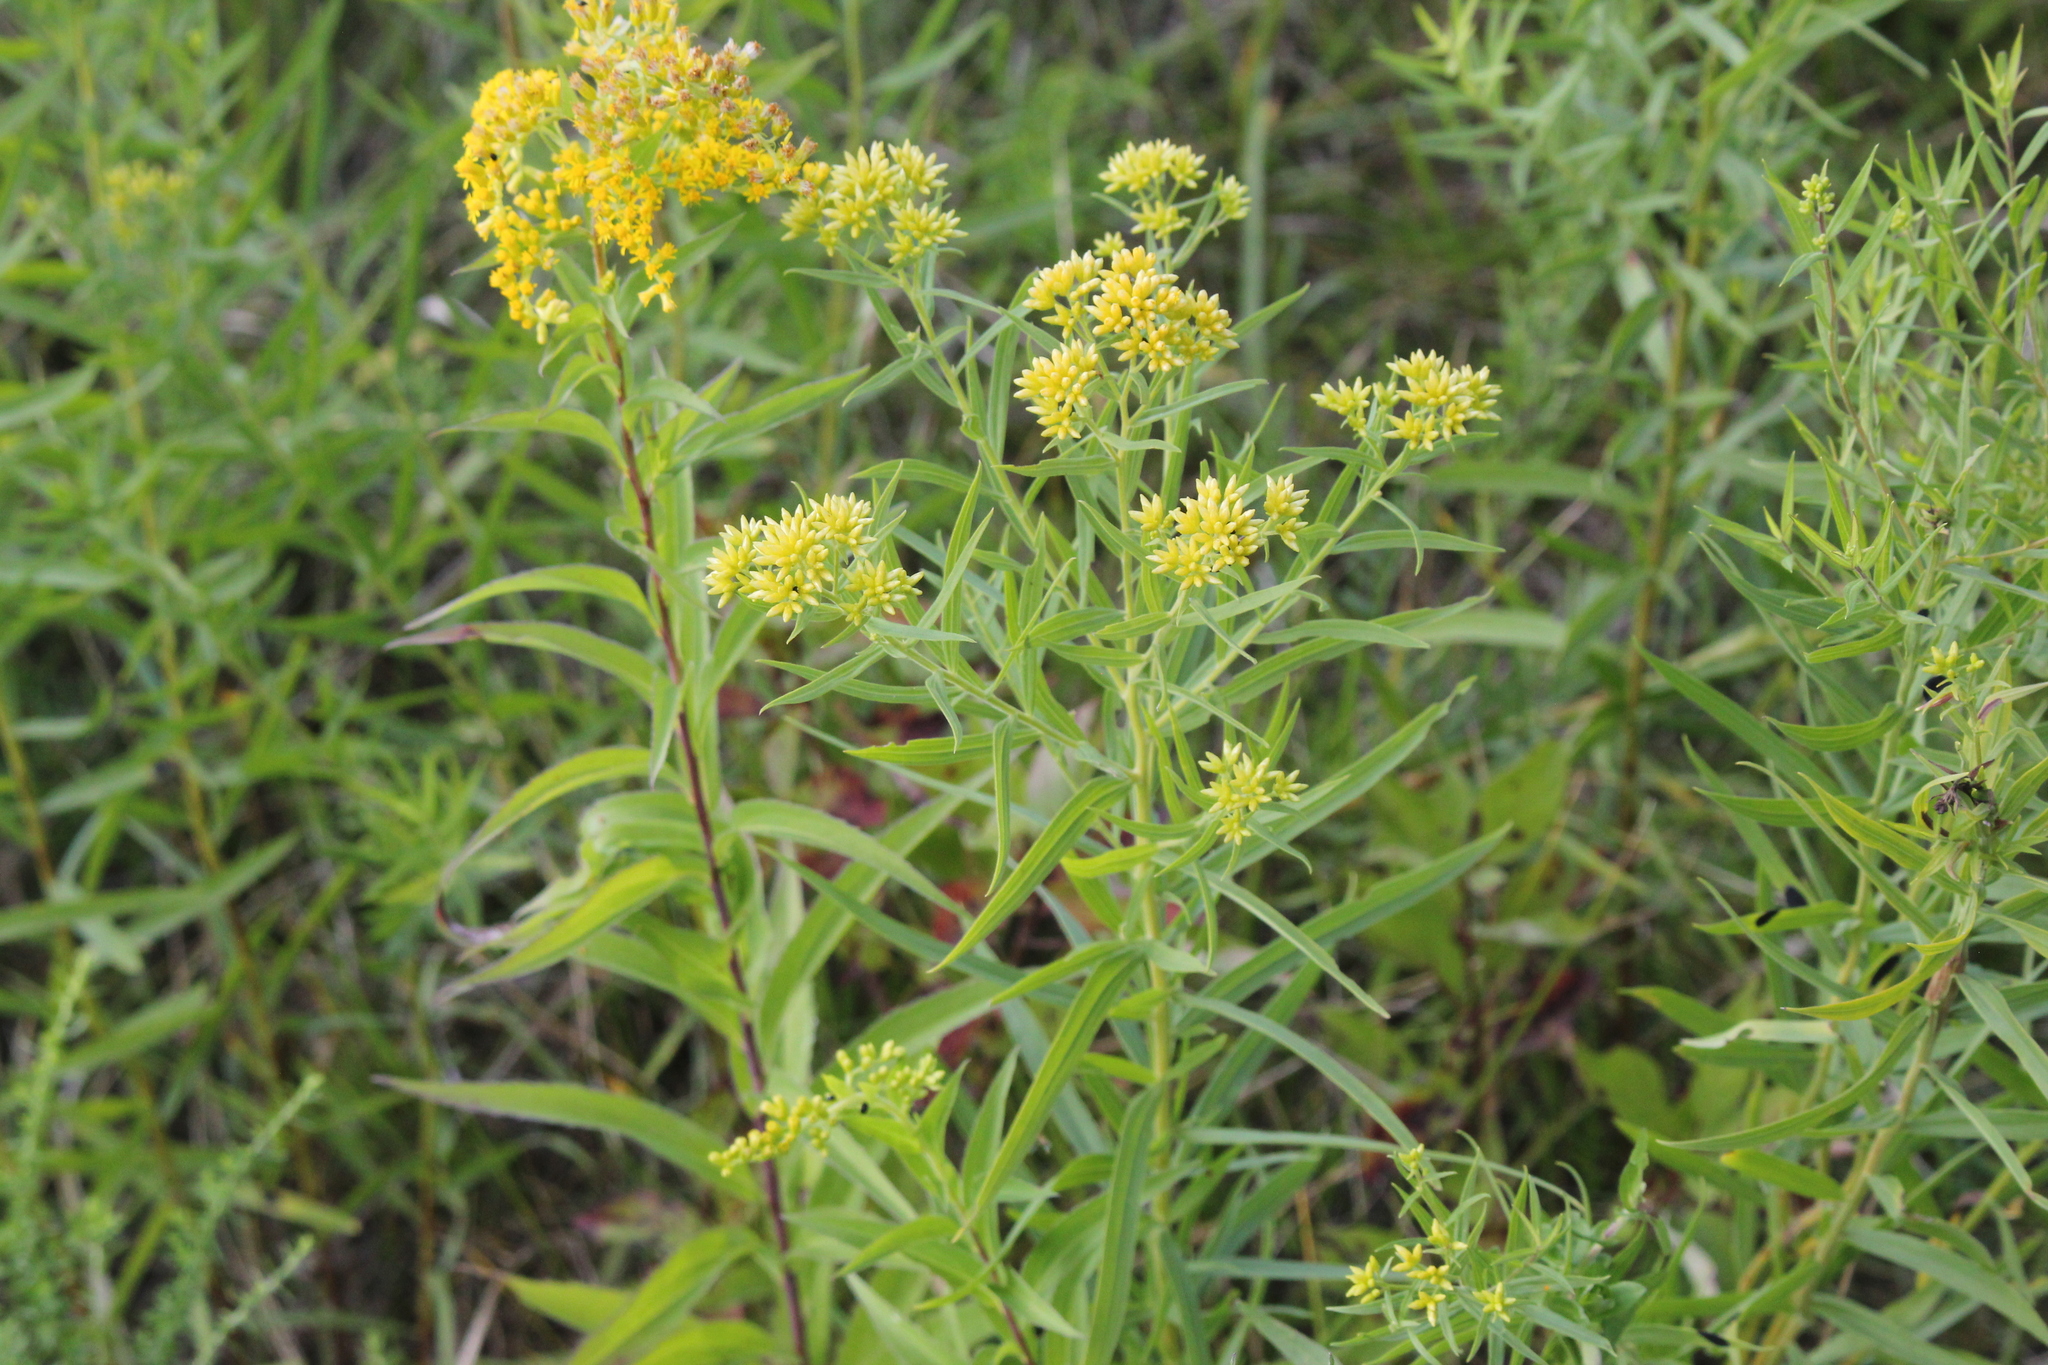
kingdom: Plantae
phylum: Tracheophyta
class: Magnoliopsida
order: Asterales
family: Asteraceae
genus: Euthamia
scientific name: Euthamia graminifolia
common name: Common goldentop
